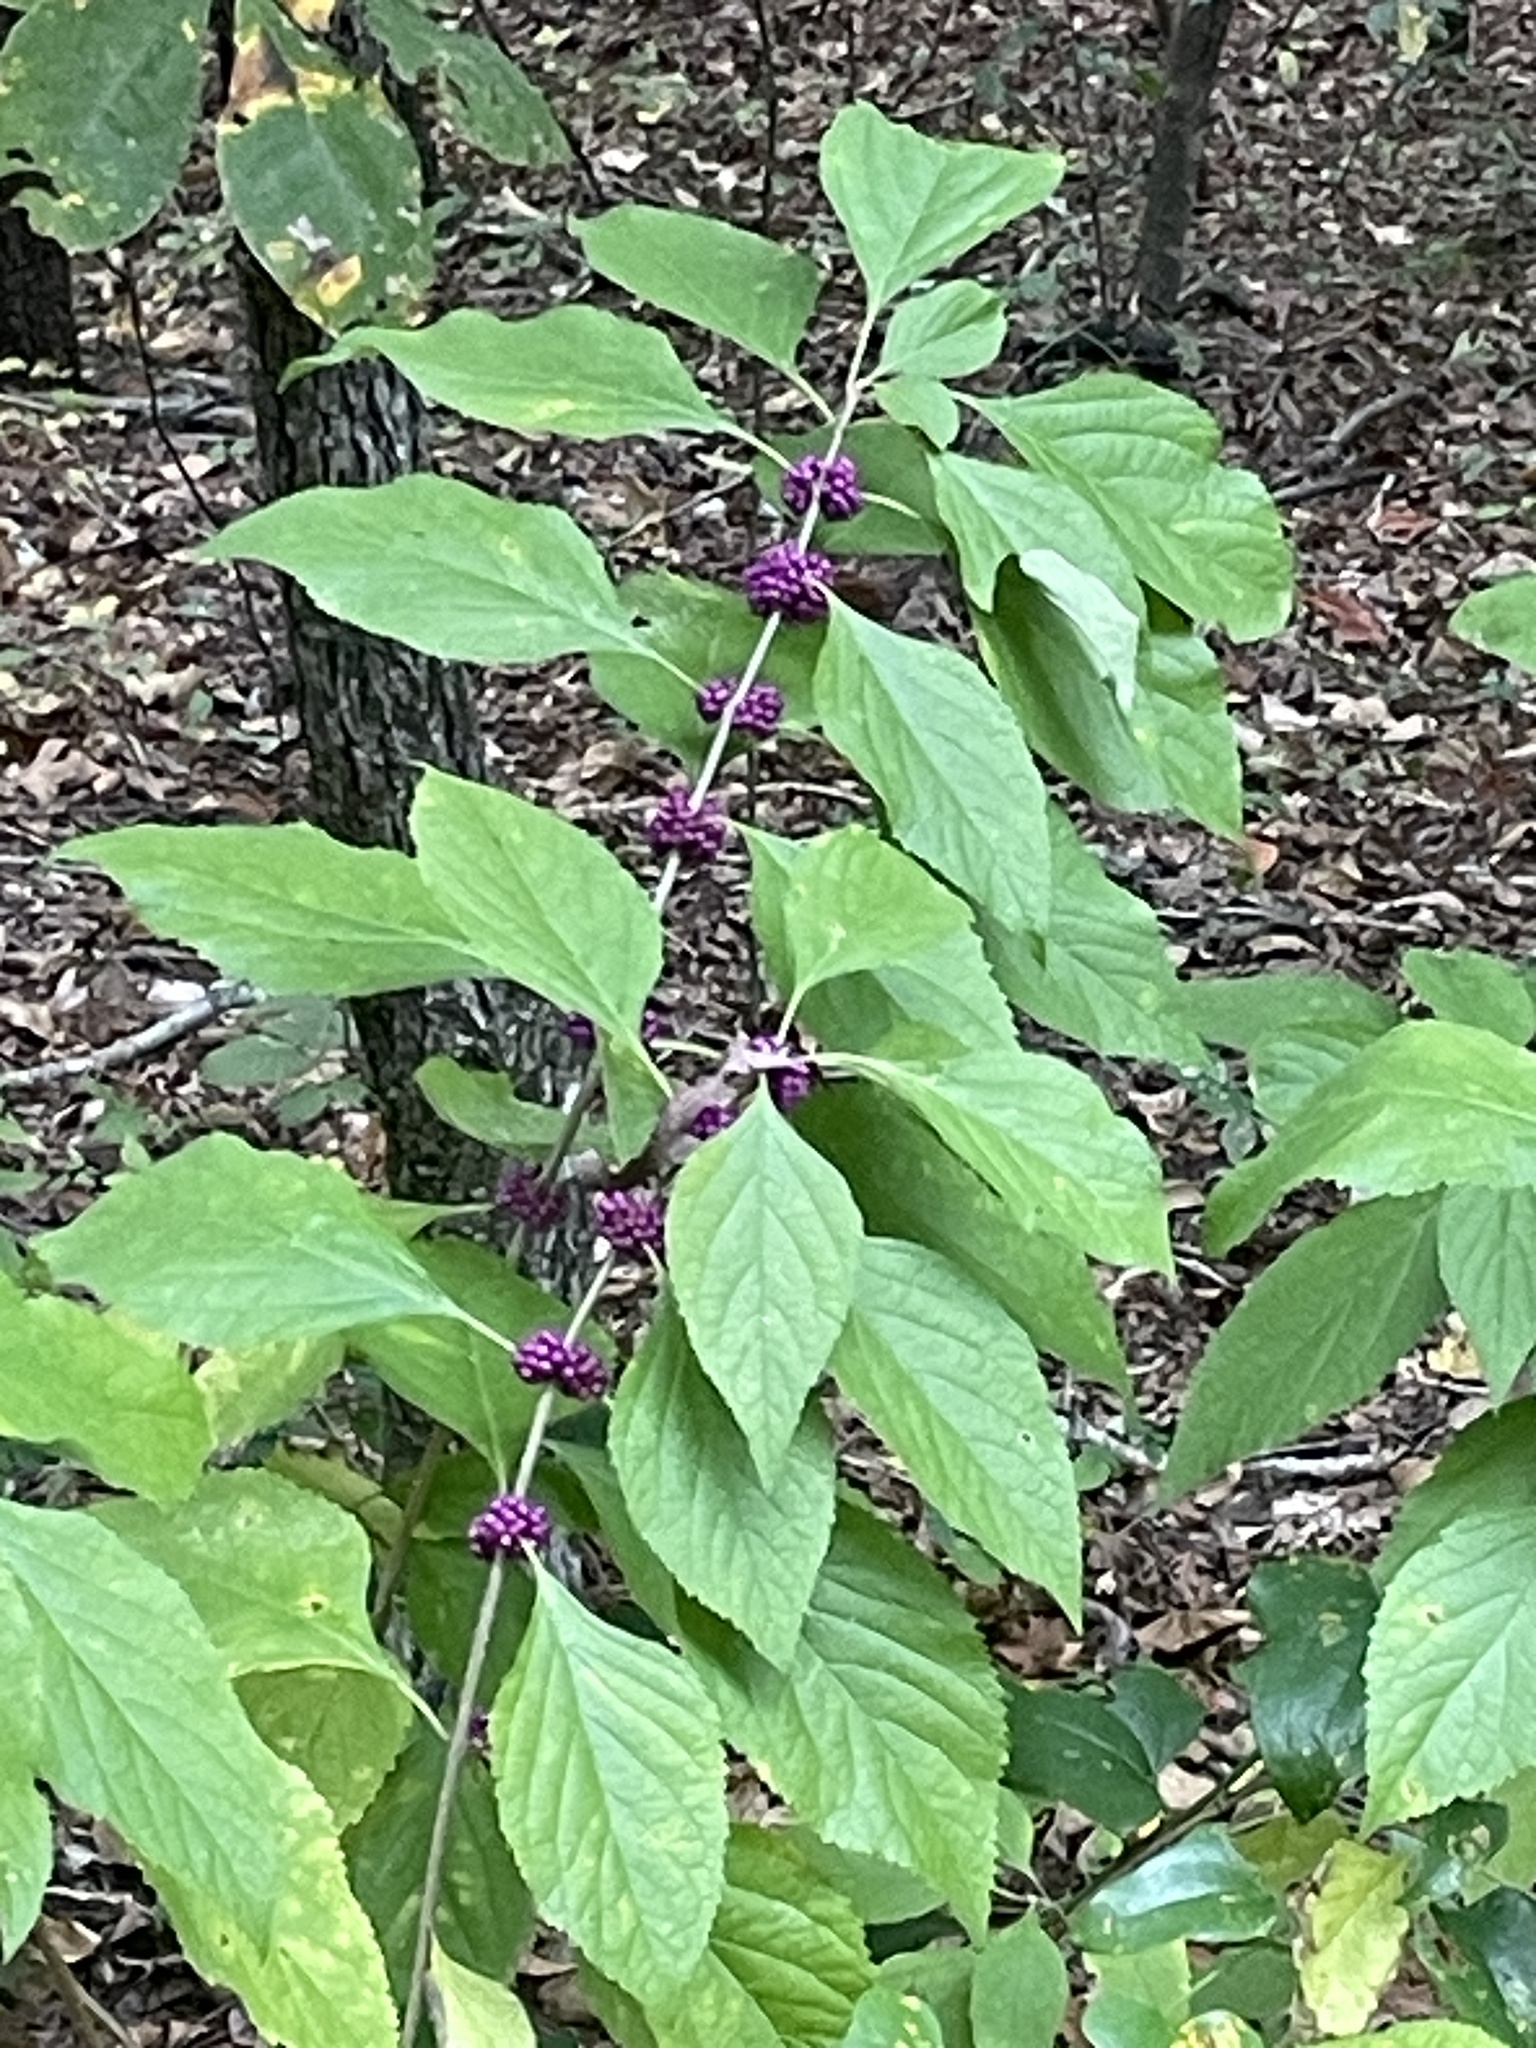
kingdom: Plantae
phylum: Tracheophyta
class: Magnoliopsida
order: Lamiales
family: Lamiaceae
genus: Callicarpa
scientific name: Callicarpa americana
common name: American beautyberry
